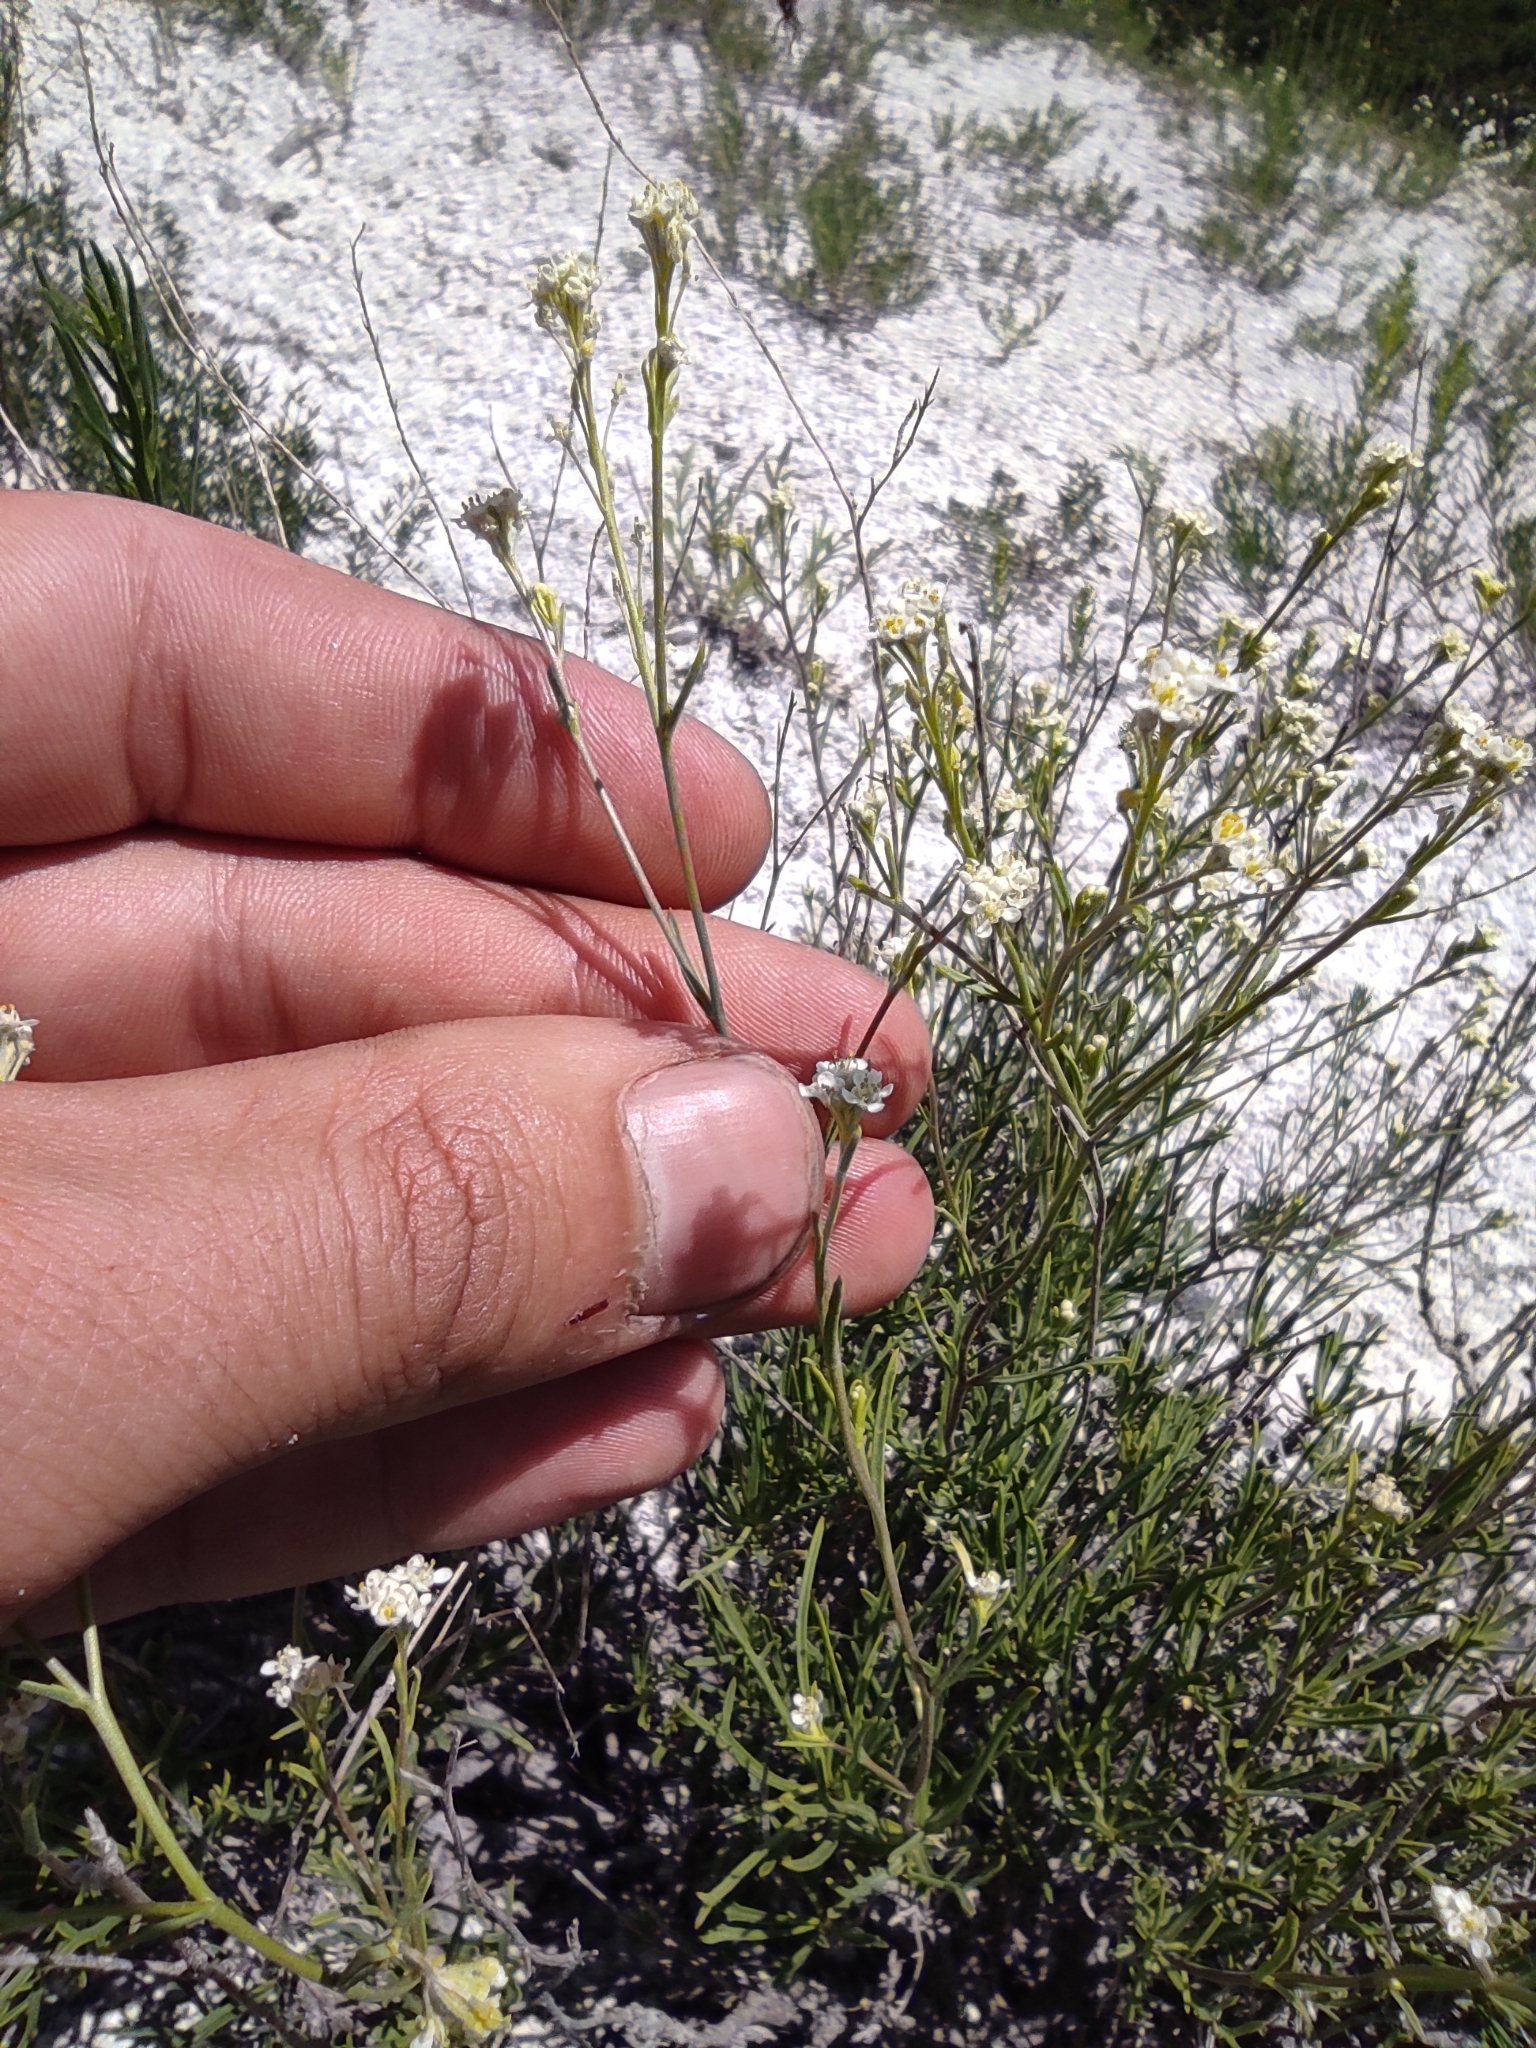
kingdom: Plantae
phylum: Tracheophyta
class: Magnoliopsida
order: Brassicales
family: Brassicaceae
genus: Lepidium
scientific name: Lepidium meyeri
